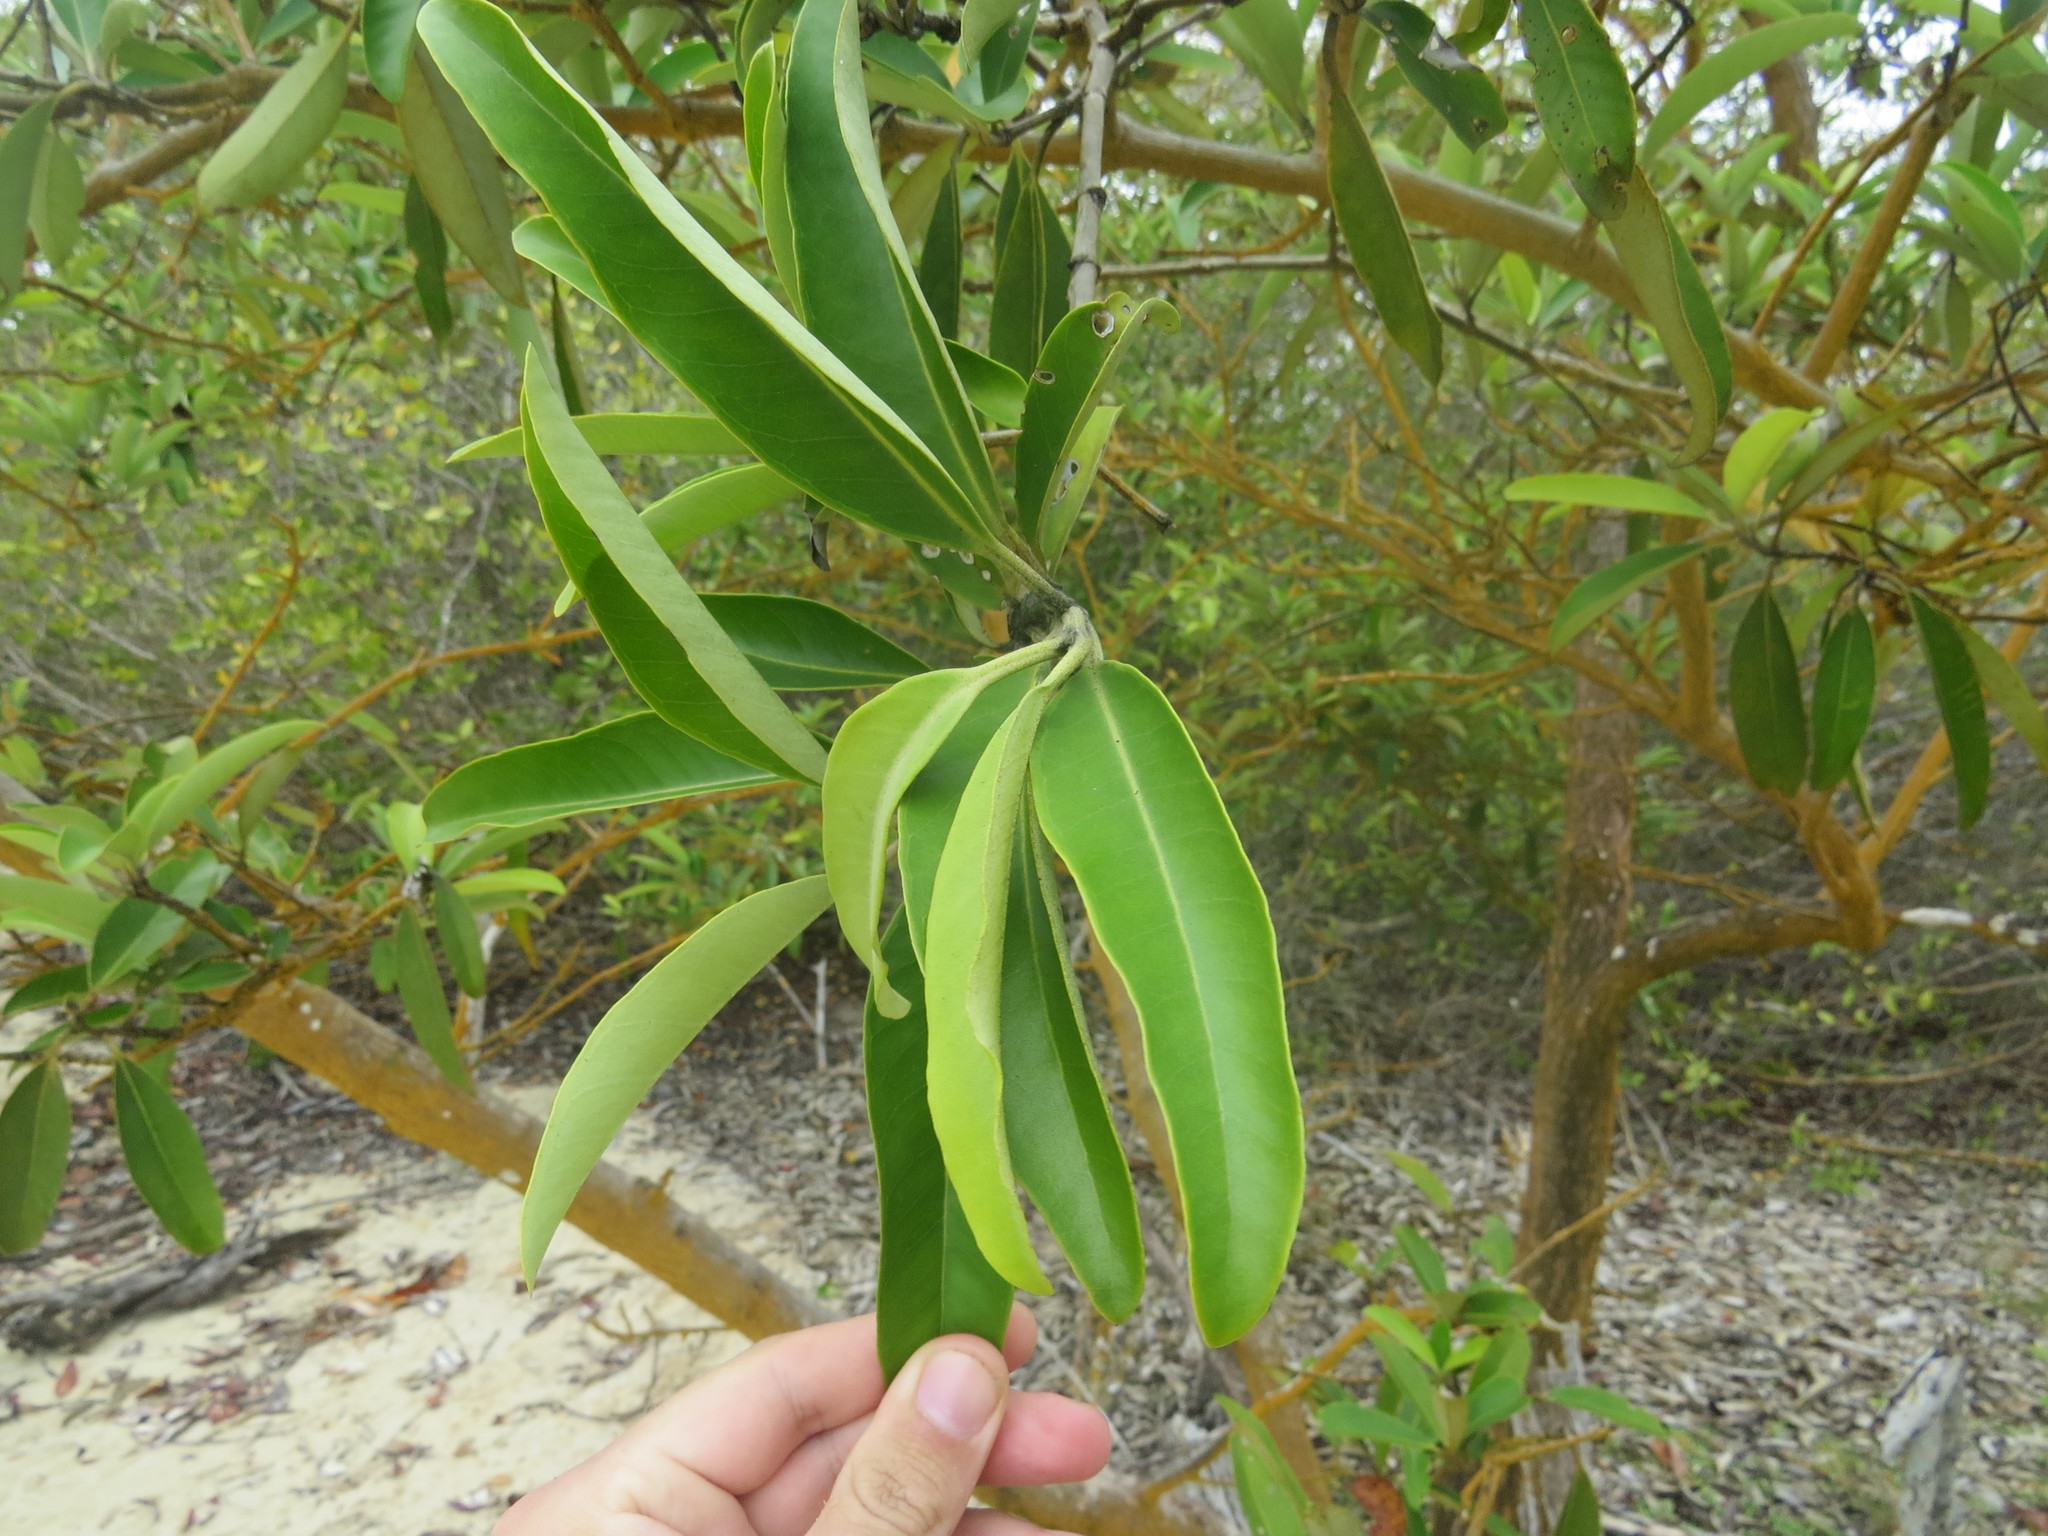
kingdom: Plantae
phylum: Tracheophyta
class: Magnoliopsida
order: Lamiales
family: Acanthaceae
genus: Avicennia
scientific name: Avicennia germinans
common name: Black mangrove
